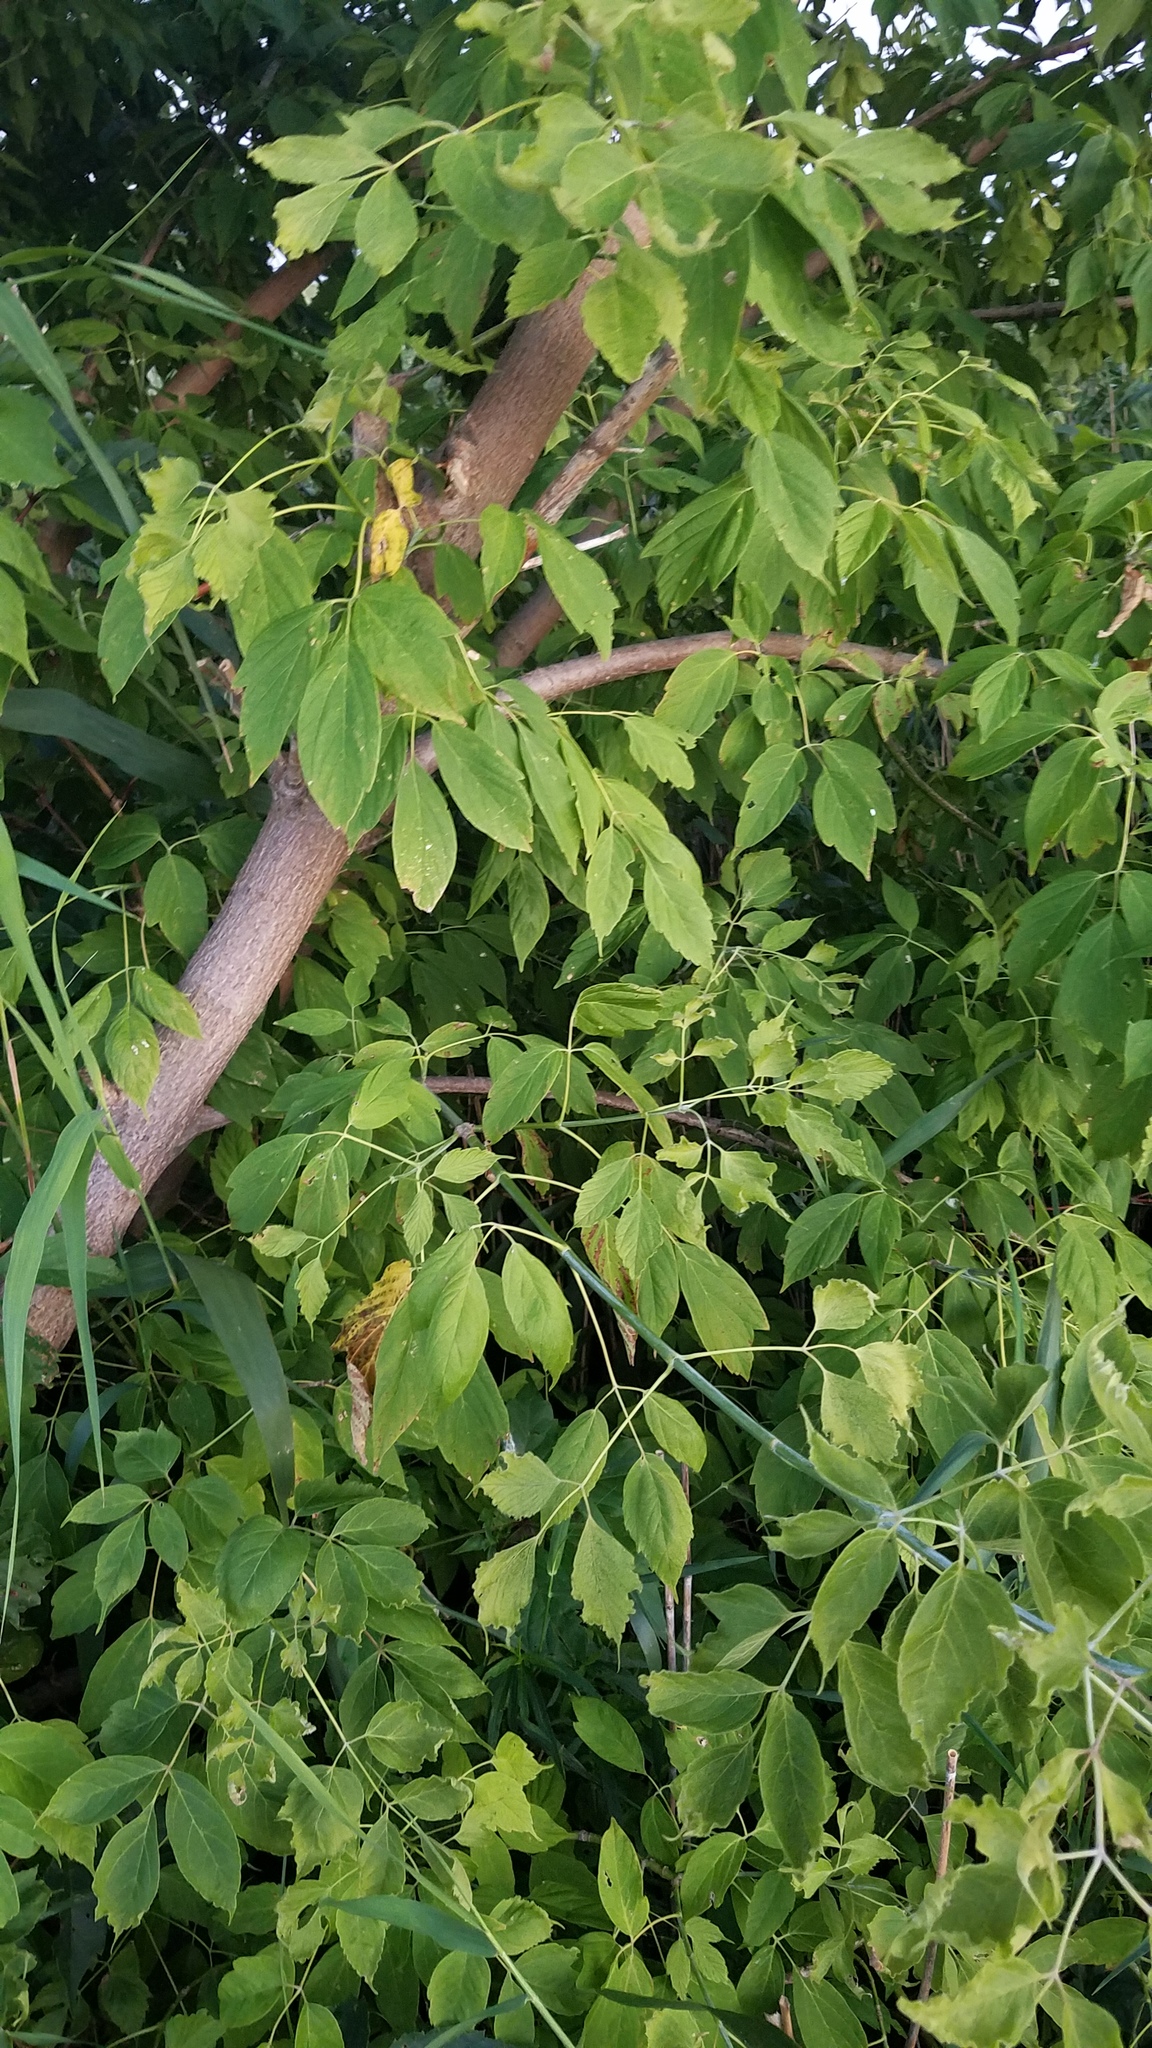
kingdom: Plantae
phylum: Tracheophyta
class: Magnoliopsida
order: Sapindales
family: Sapindaceae
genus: Acer
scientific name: Acer negundo
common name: Ashleaf maple
